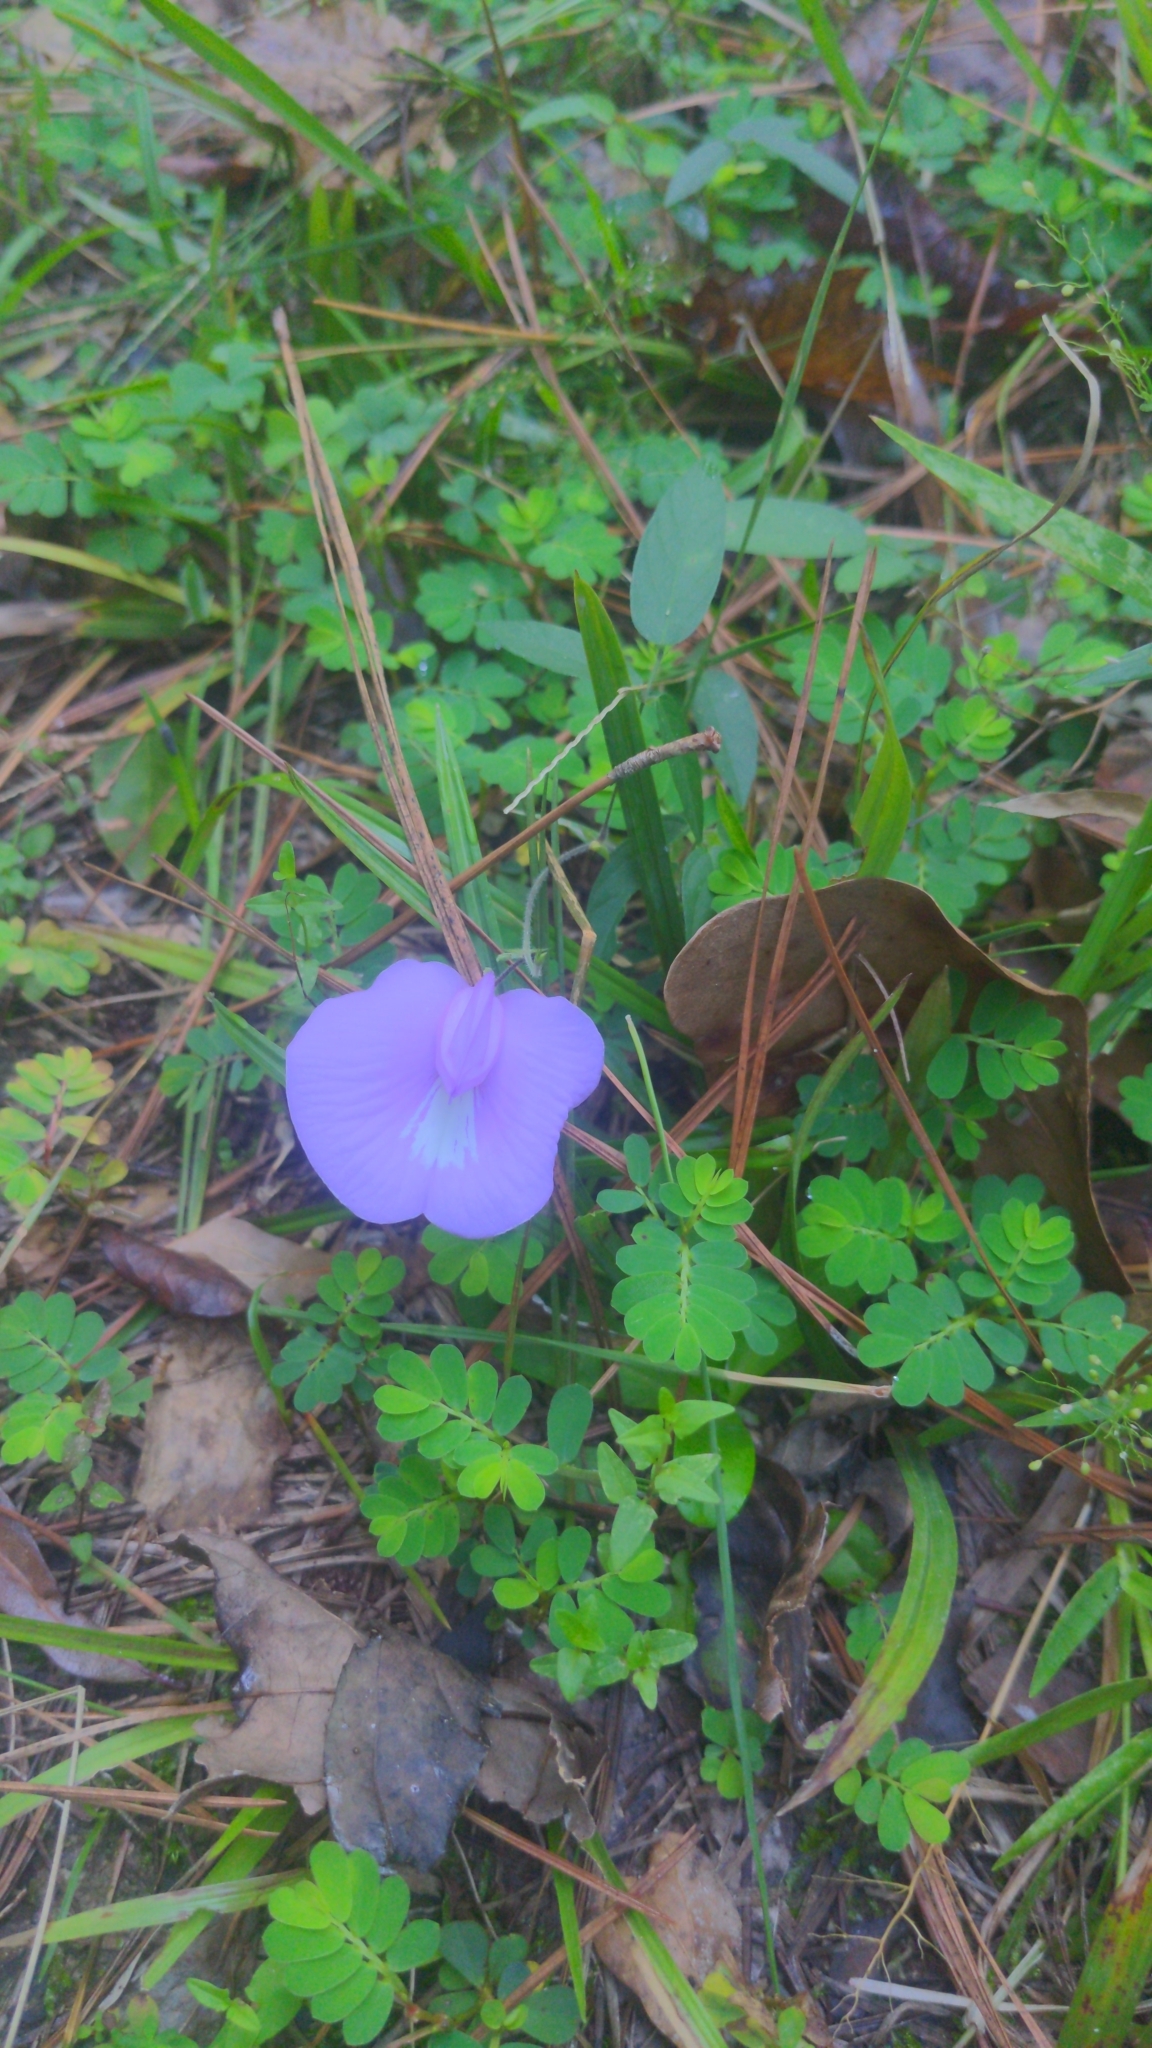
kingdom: Plantae
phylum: Tracheophyta
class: Magnoliopsida
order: Fabales
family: Fabaceae
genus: Centrosema
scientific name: Centrosema virginianum
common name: Butterfly-pea
